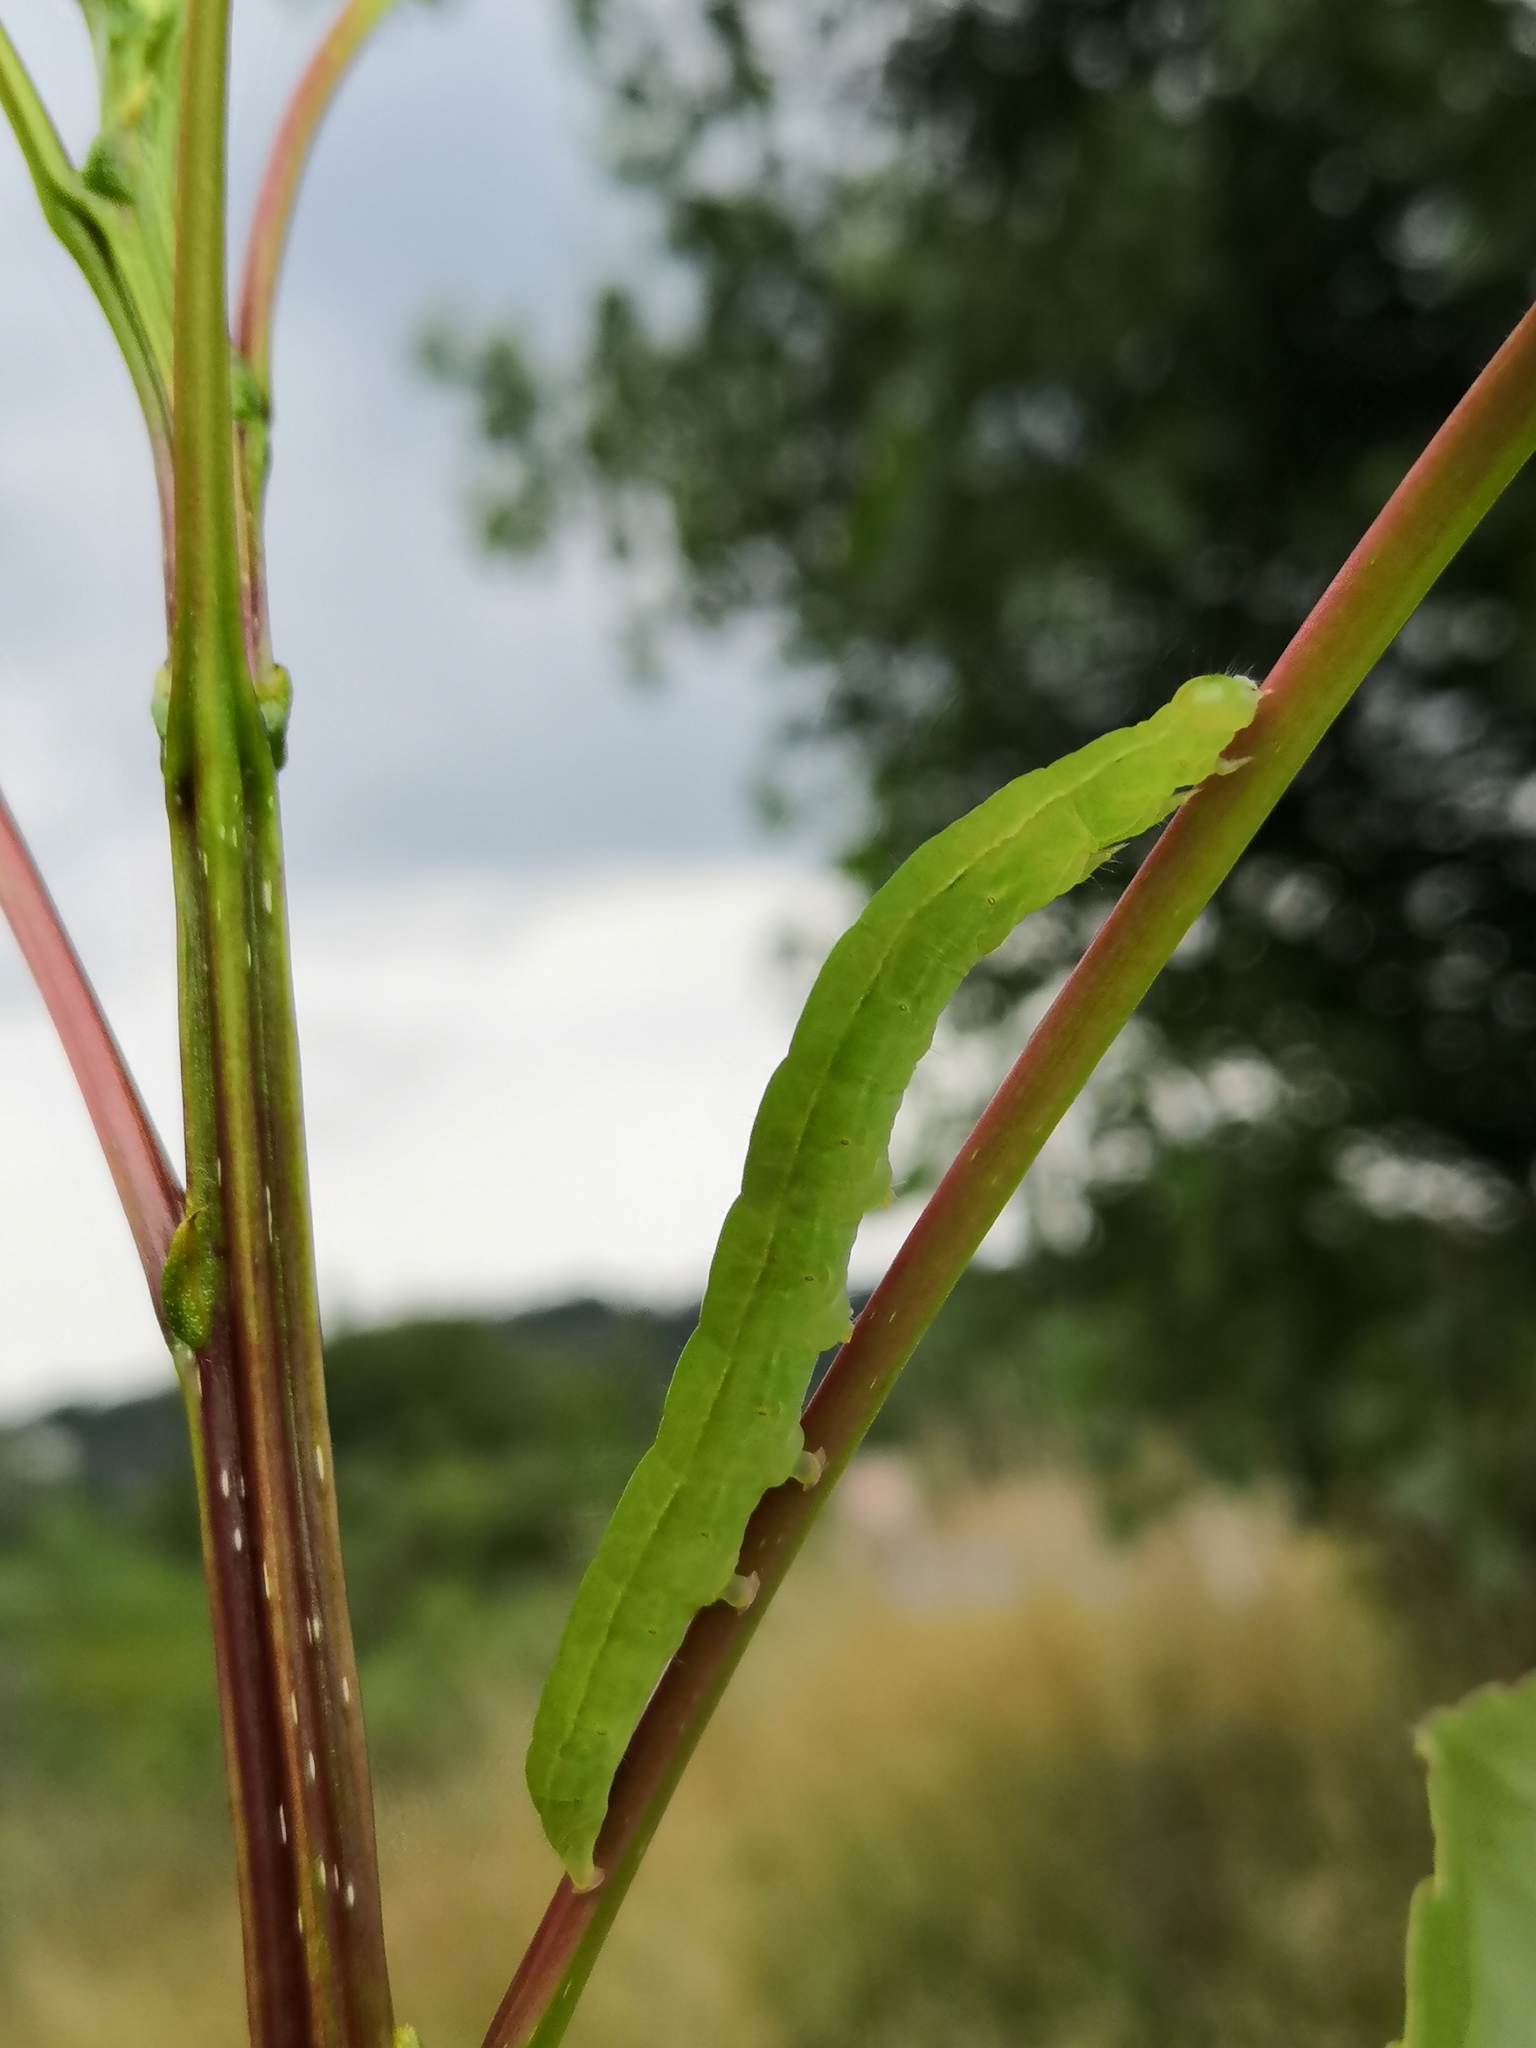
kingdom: Animalia
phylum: Arthropoda
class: Insecta
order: Lepidoptera
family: Erebidae
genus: Scoliopteryx
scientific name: Scoliopteryx libatrix
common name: Herald
